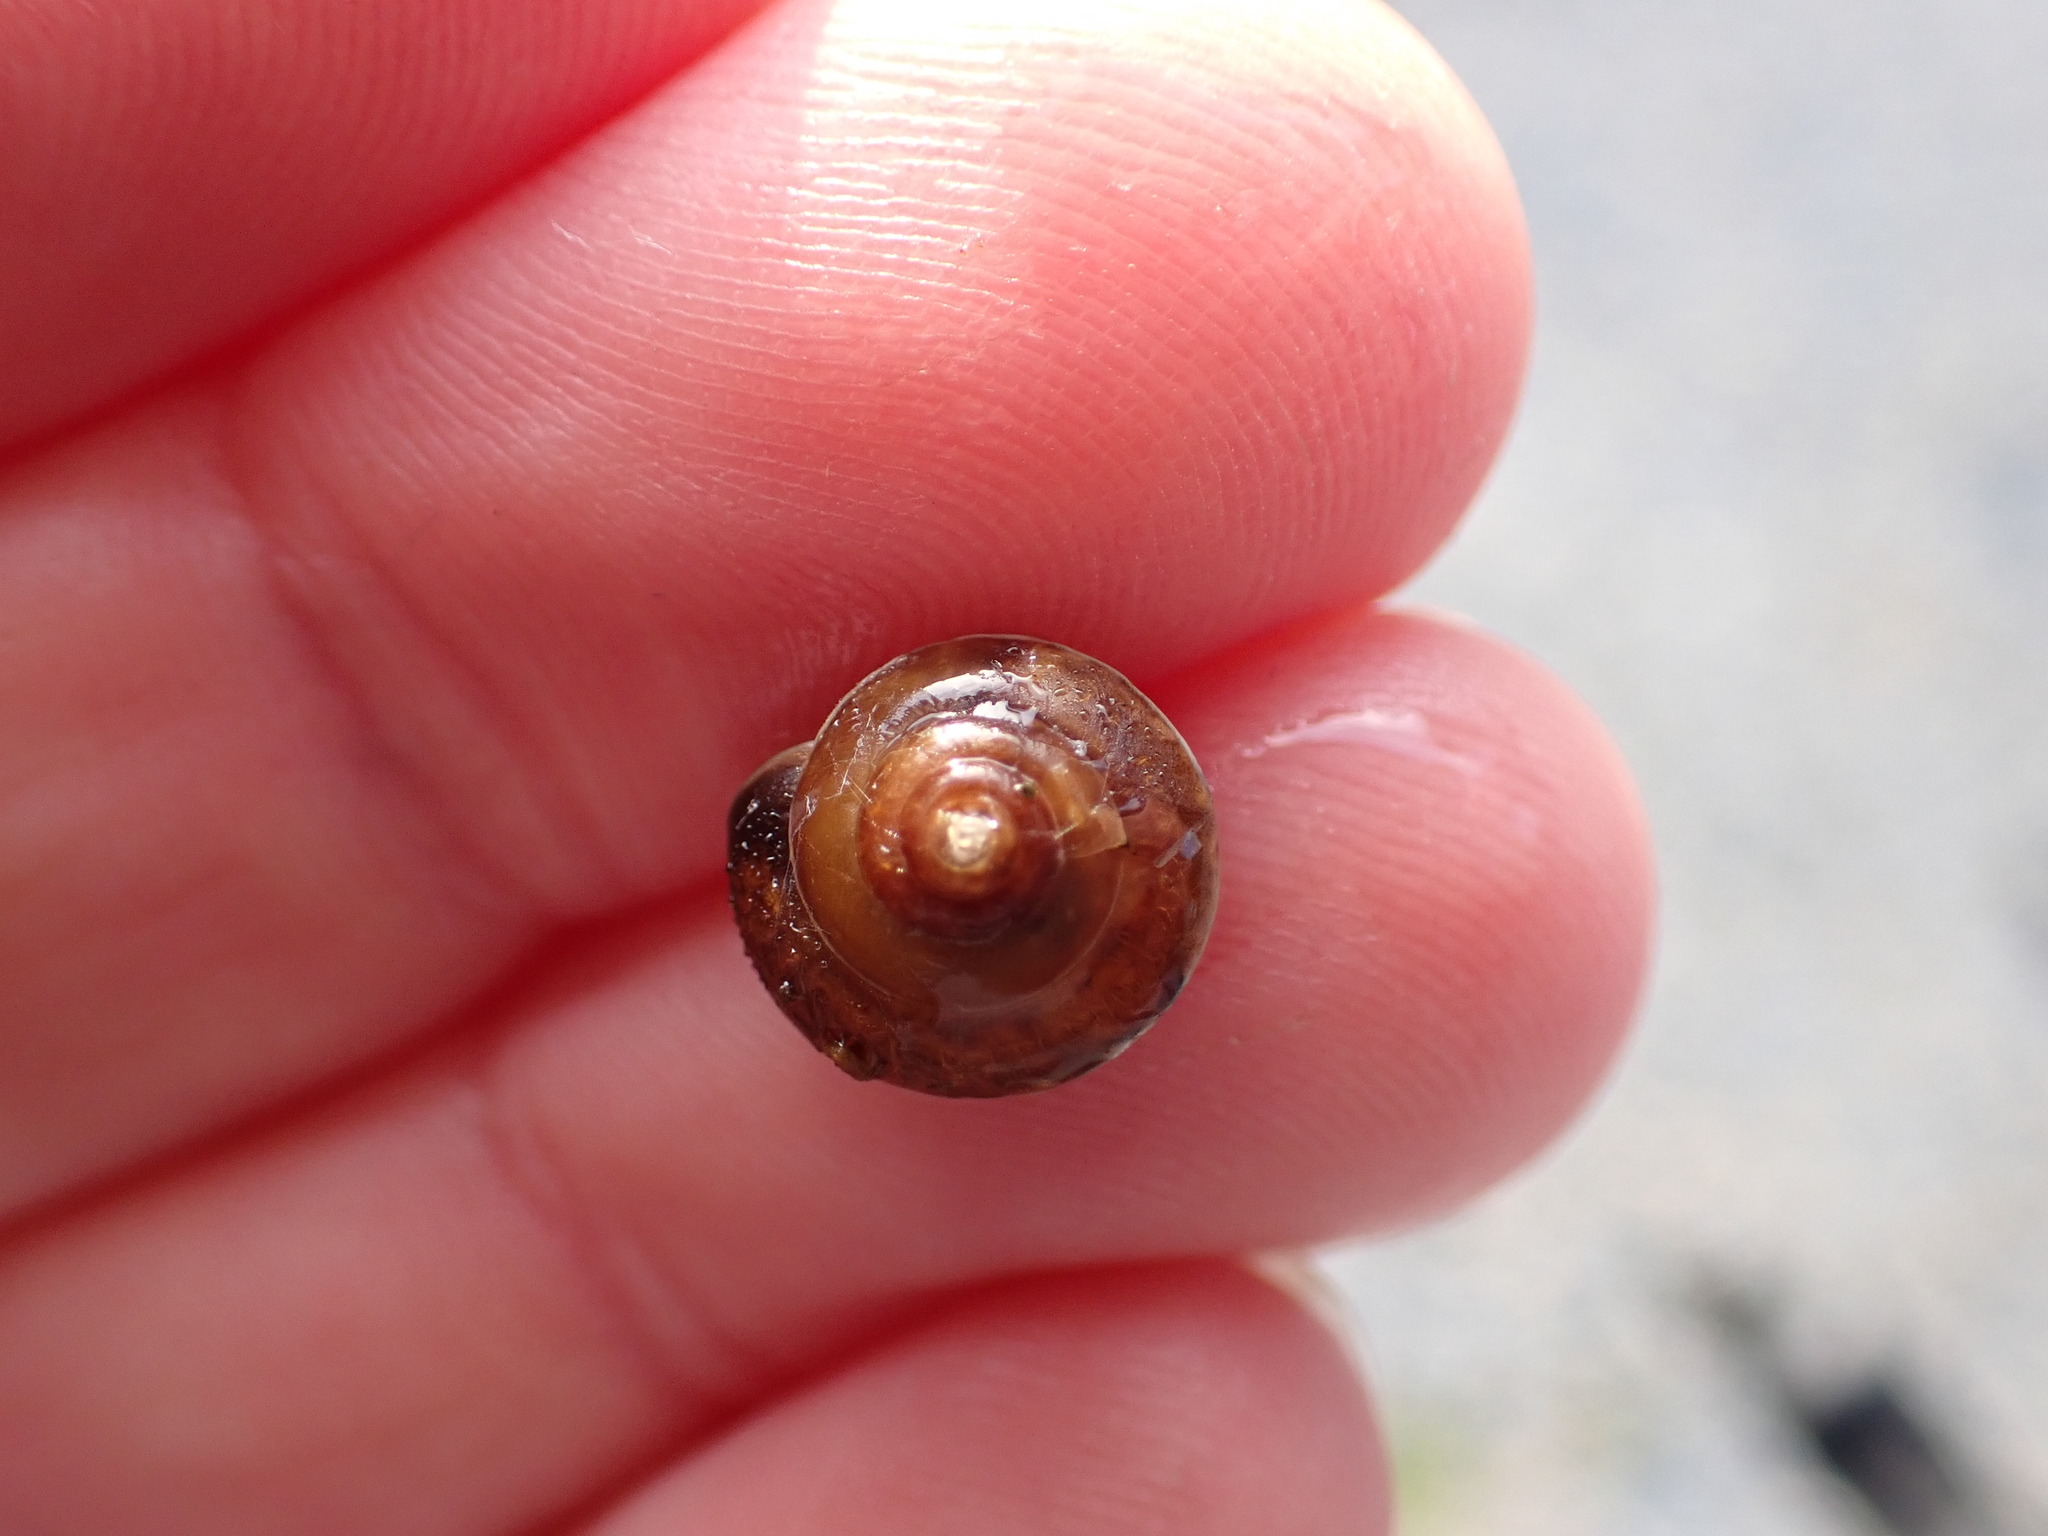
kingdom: Animalia
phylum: Mollusca
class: Gastropoda
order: Stylommatophora
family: Hygromiidae
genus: Hygromia
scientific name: Hygromia cinctella
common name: Girdled snail
